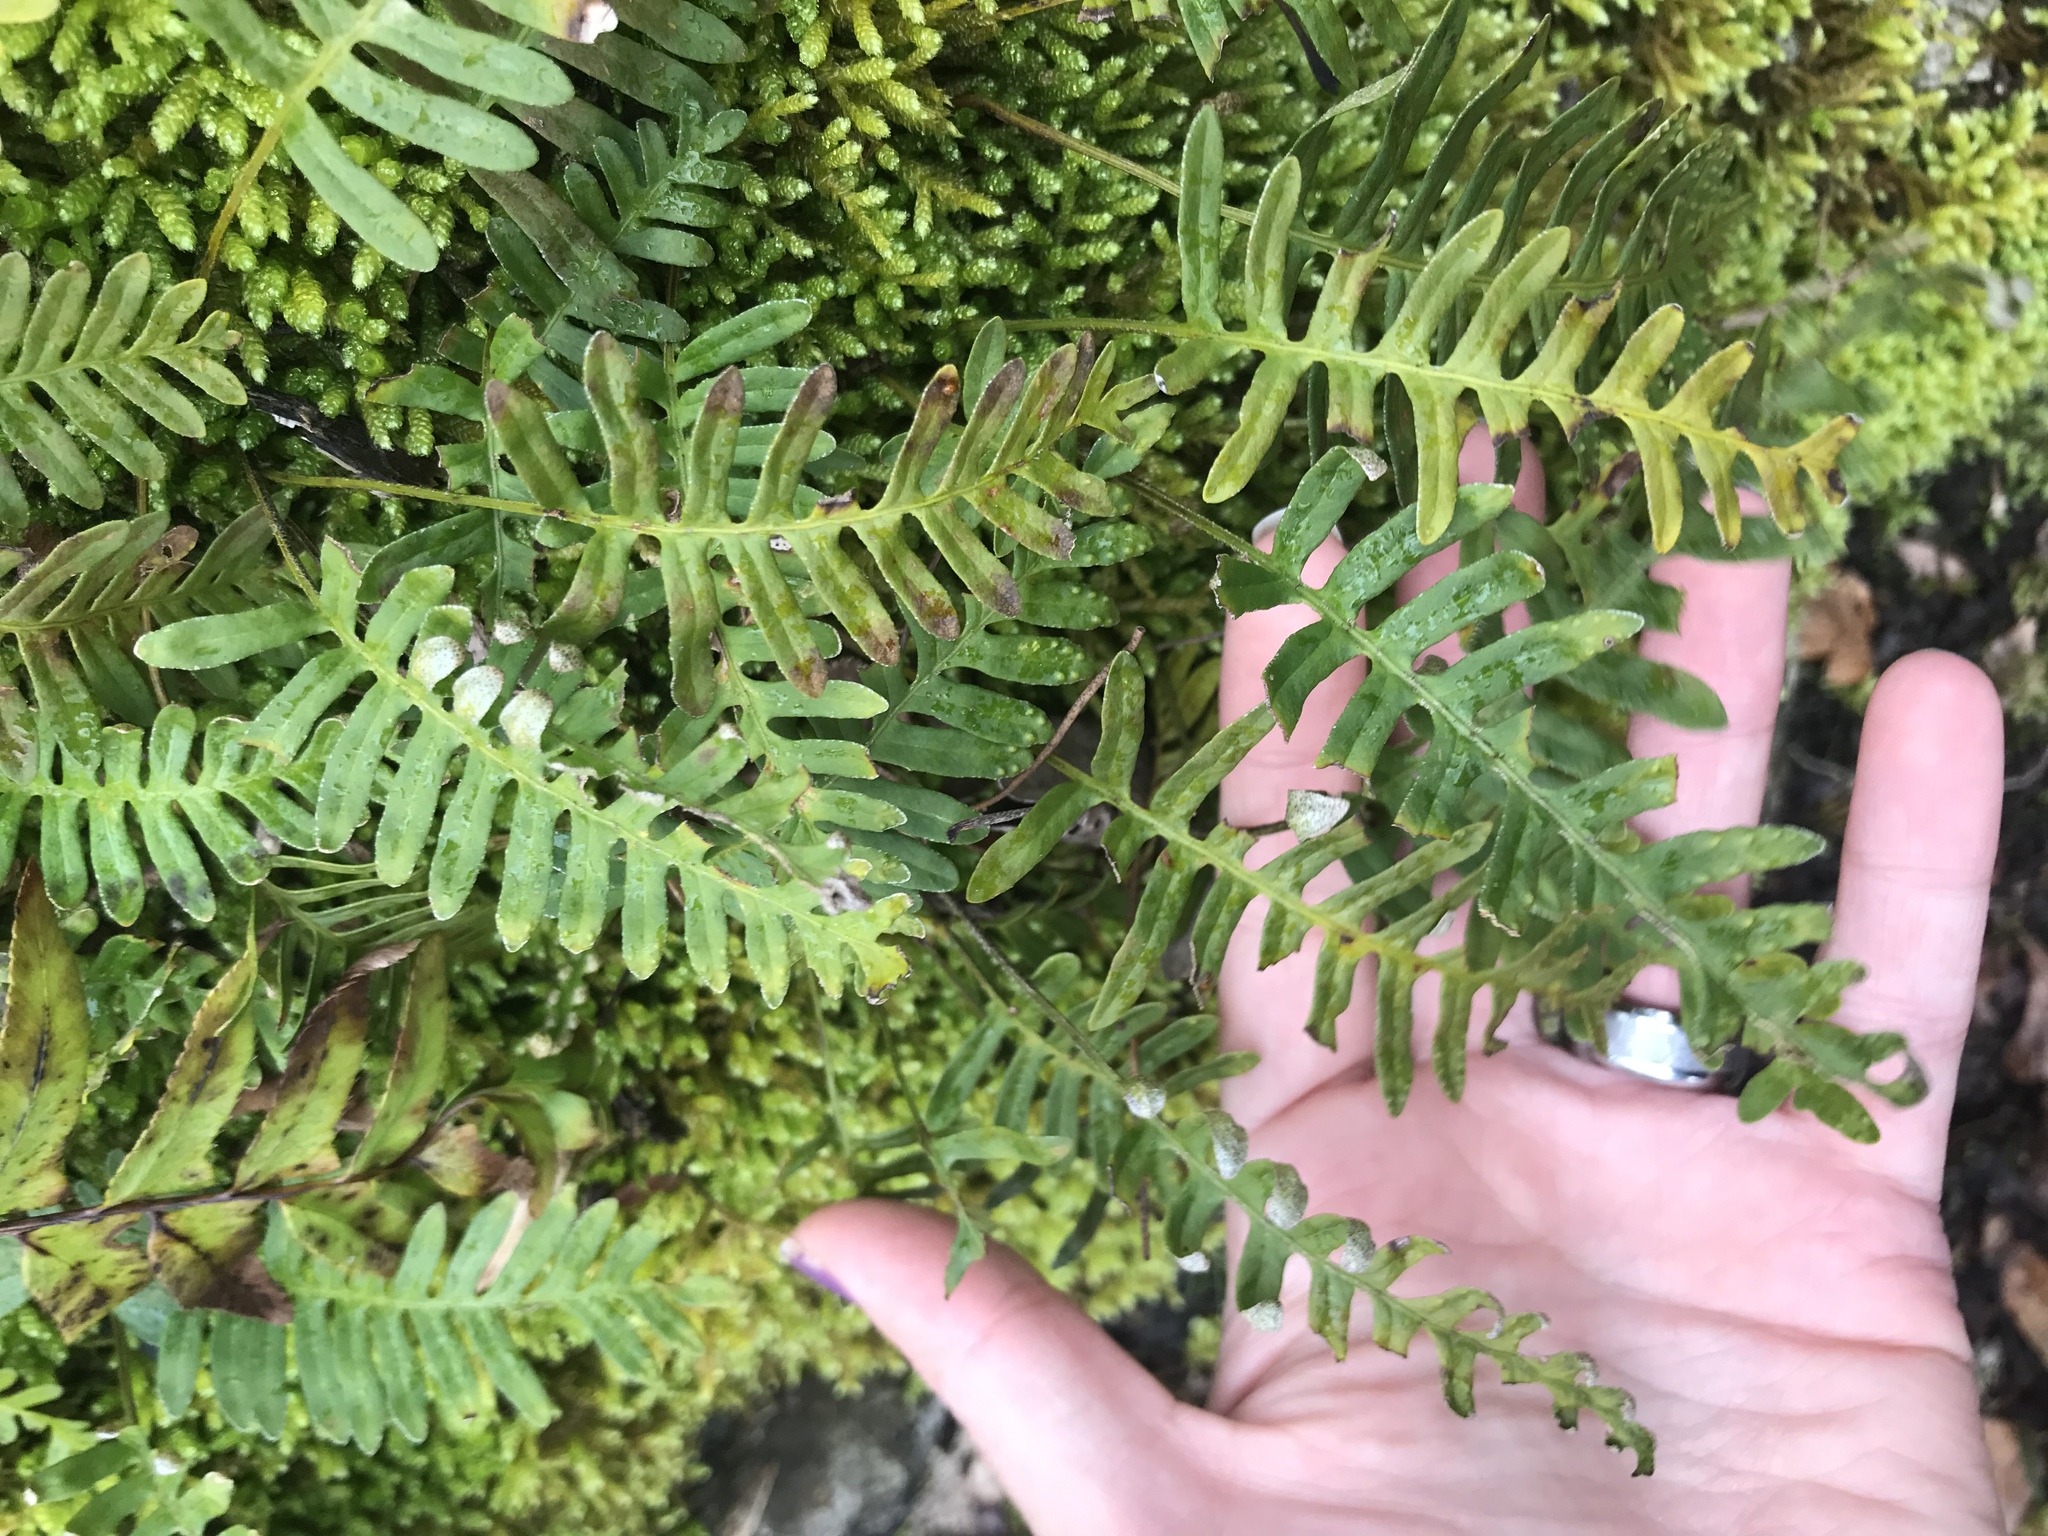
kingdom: Plantae
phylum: Tracheophyta
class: Polypodiopsida
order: Polypodiales
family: Polypodiaceae
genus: Pleopeltis
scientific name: Pleopeltis michauxiana
